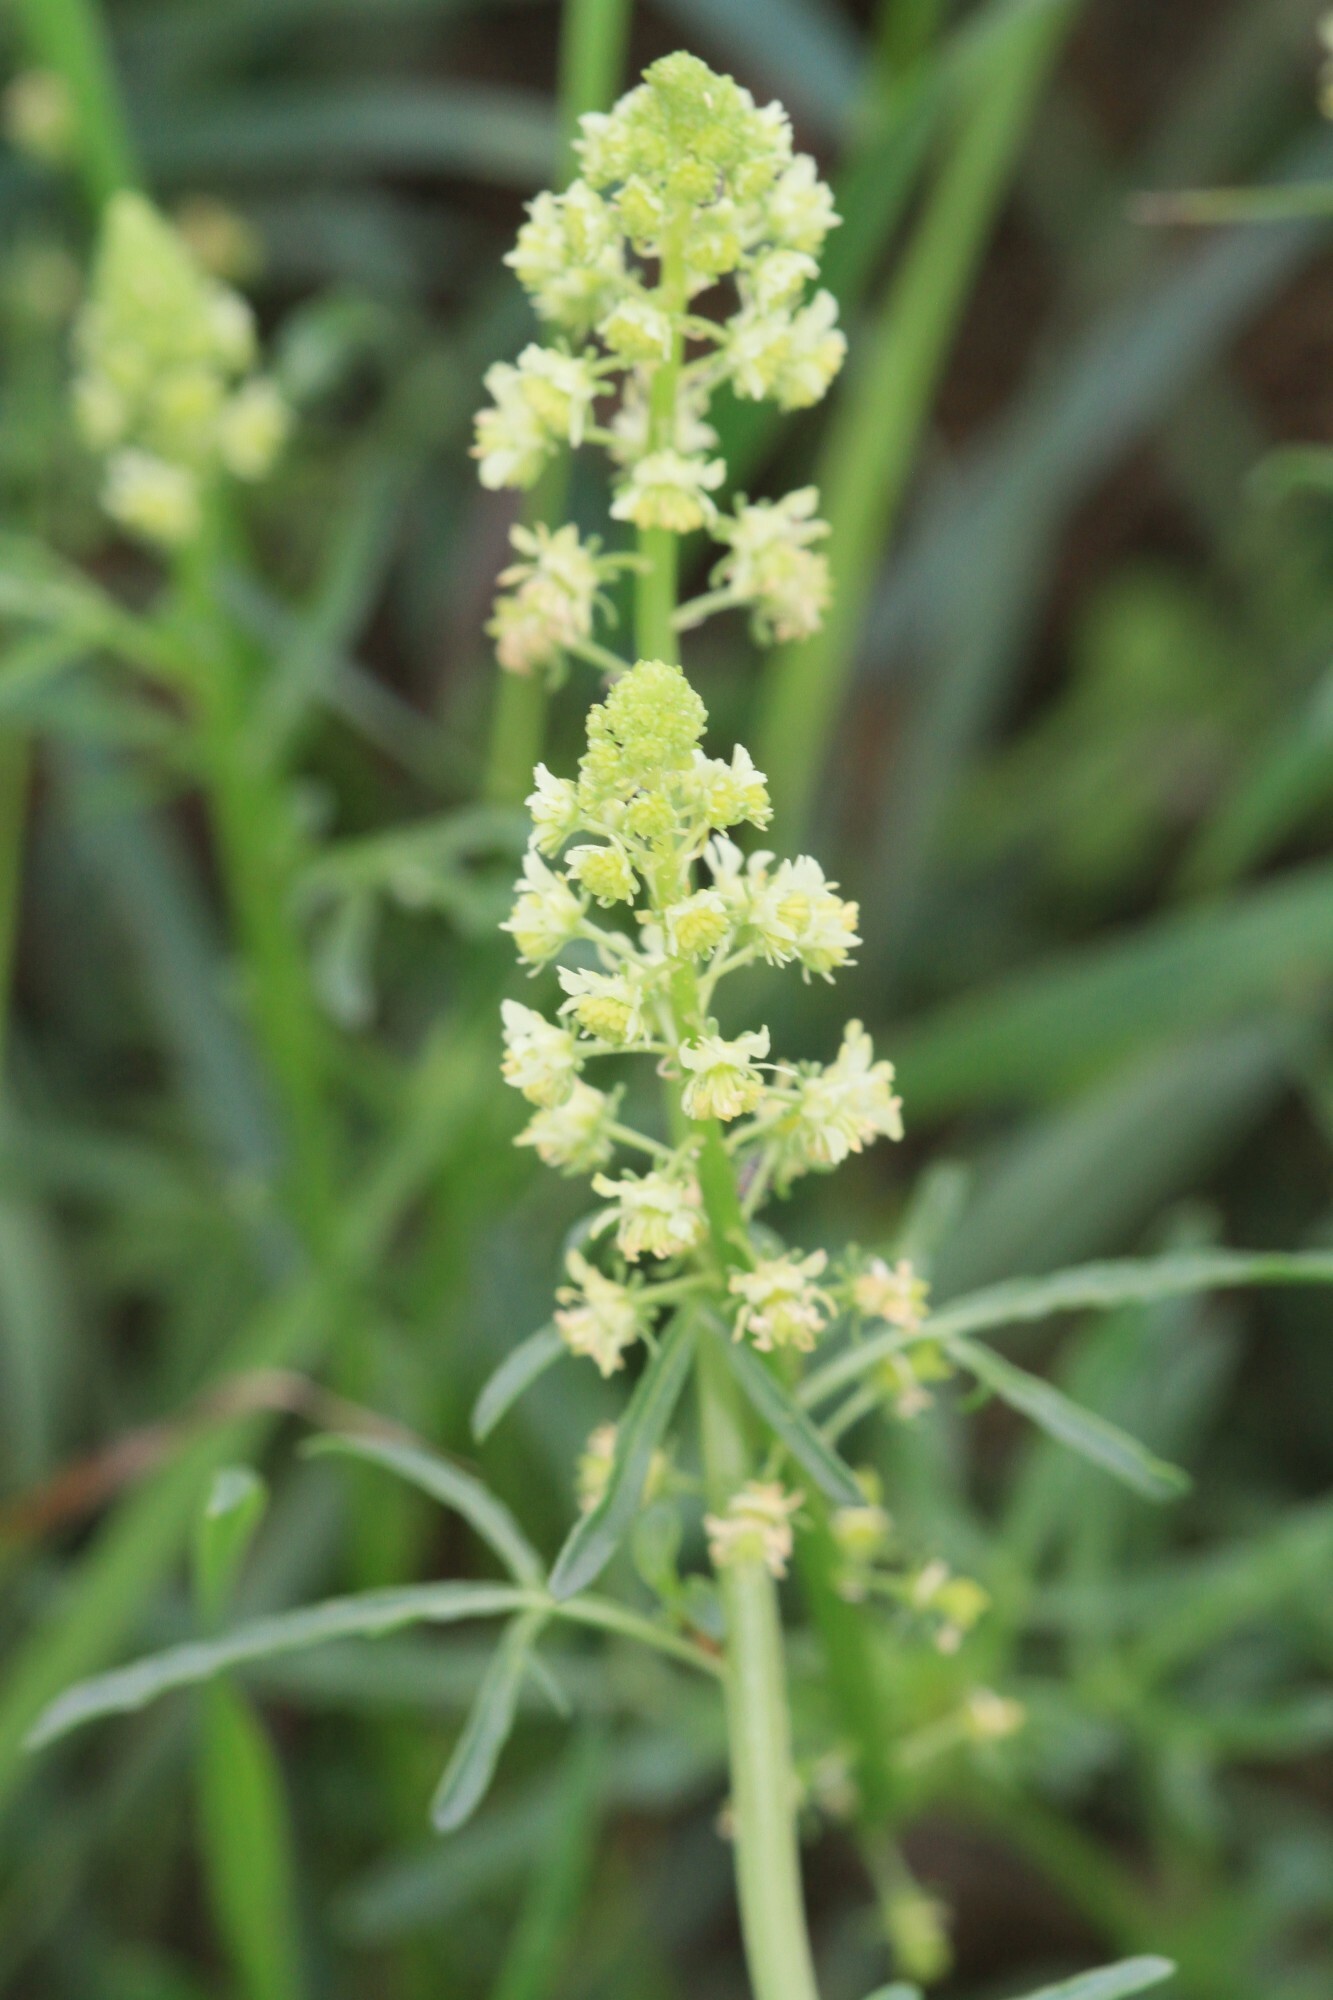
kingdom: Plantae
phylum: Tracheophyta
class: Magnoliopsida
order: Brassicales
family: Resedaceae
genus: Reseda
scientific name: Reseda lutea
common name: Wild mignonette
